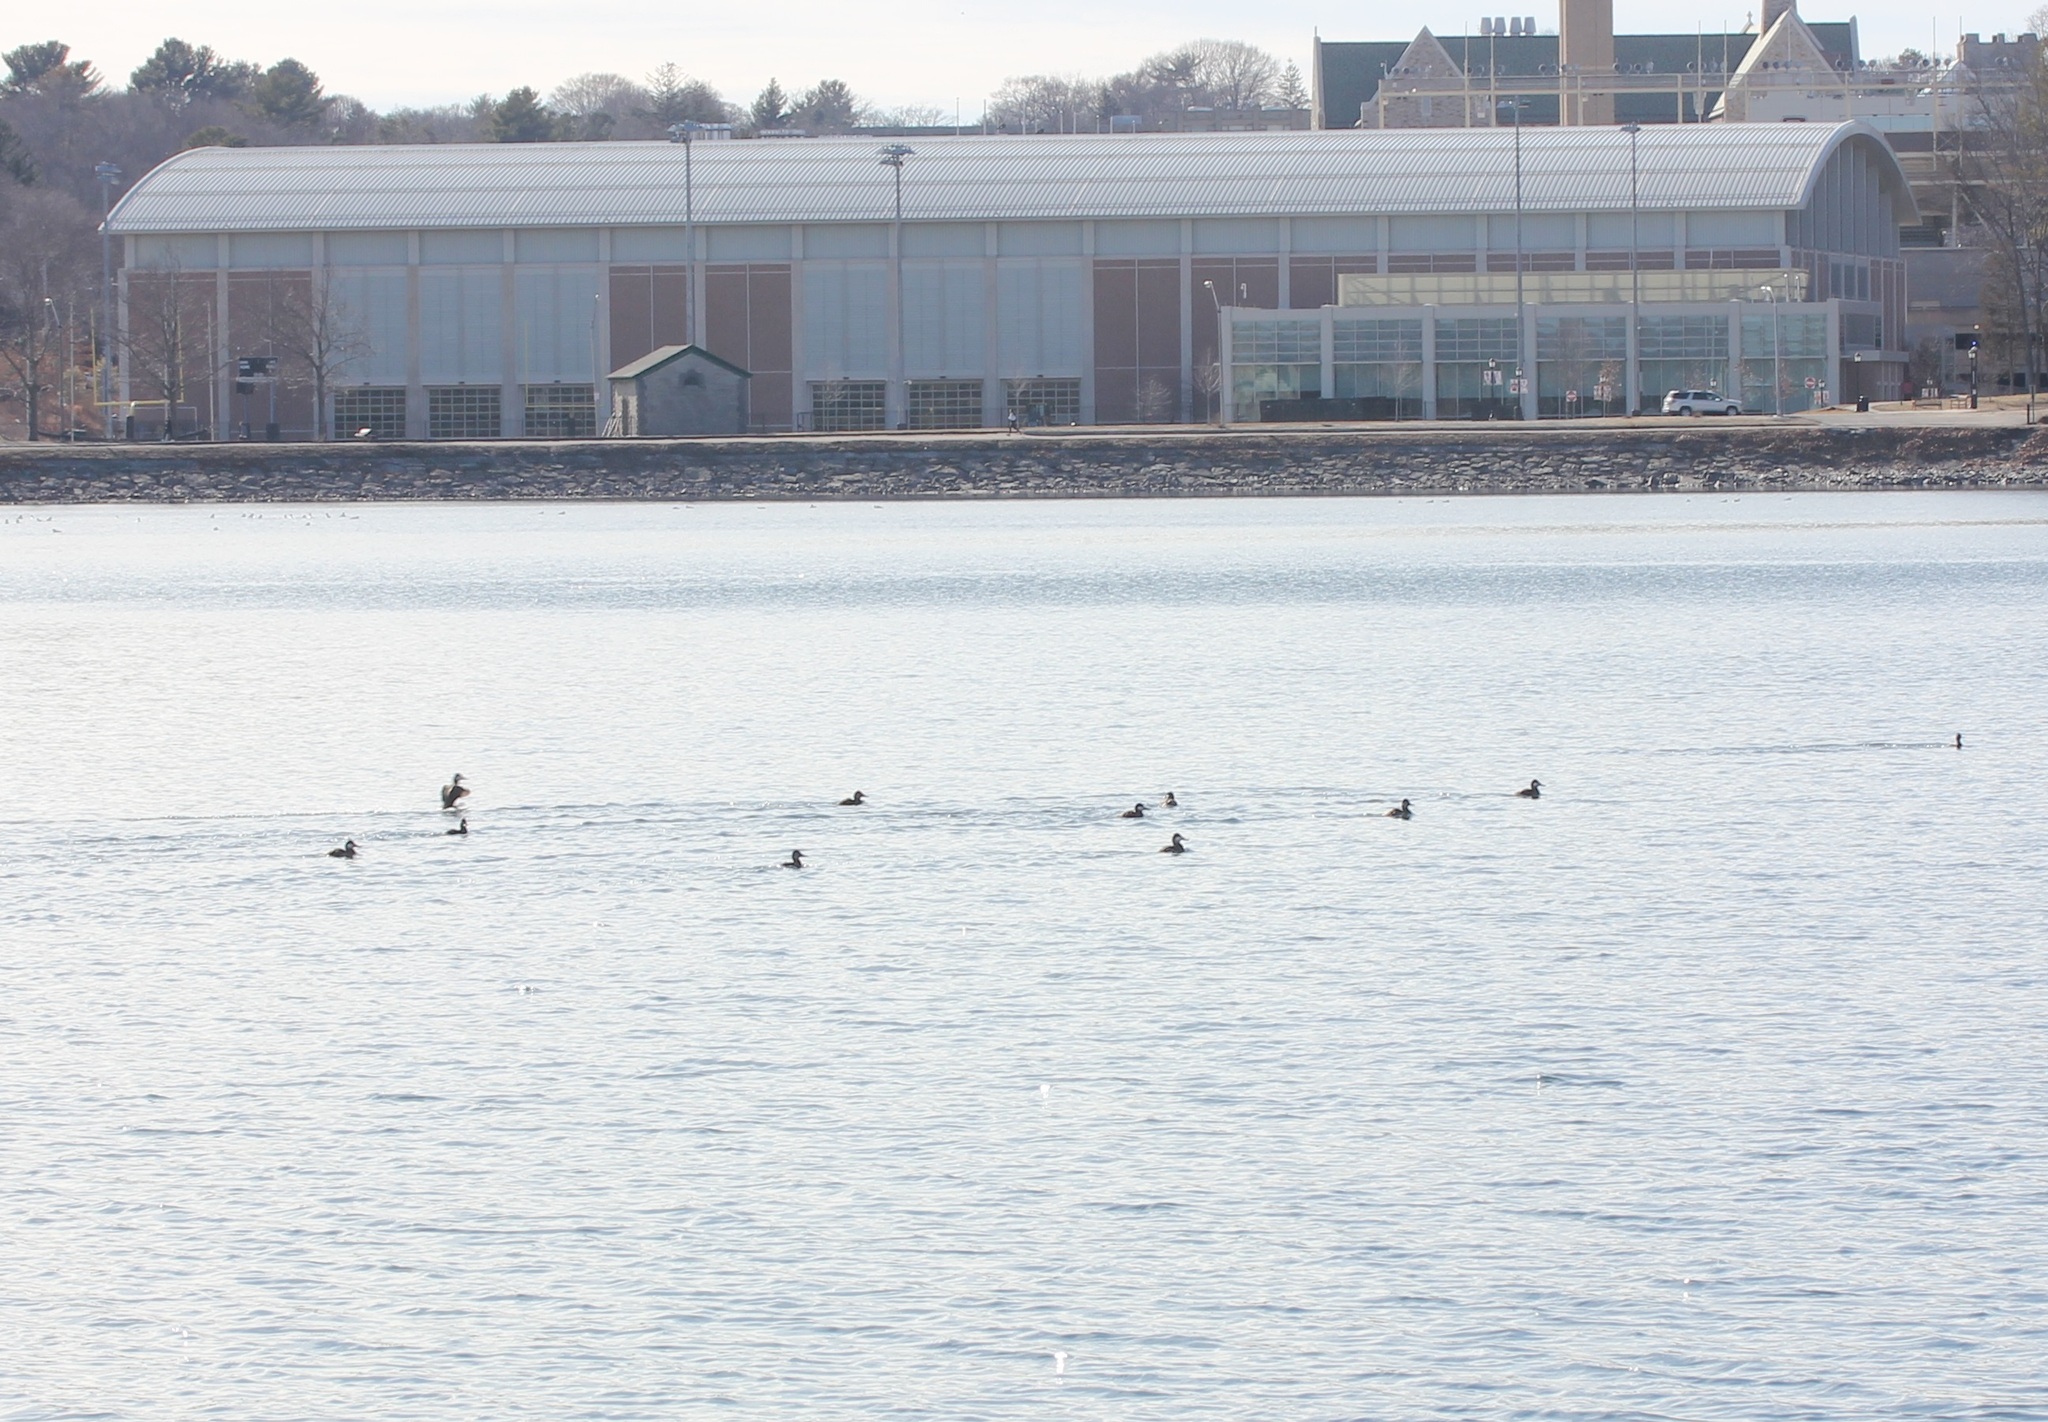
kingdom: Animalia
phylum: Chordata
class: Aves
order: Anseriformes
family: Anatidae
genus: Oxyura
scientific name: Oxyura jamaicensis
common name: Ruddy duck
